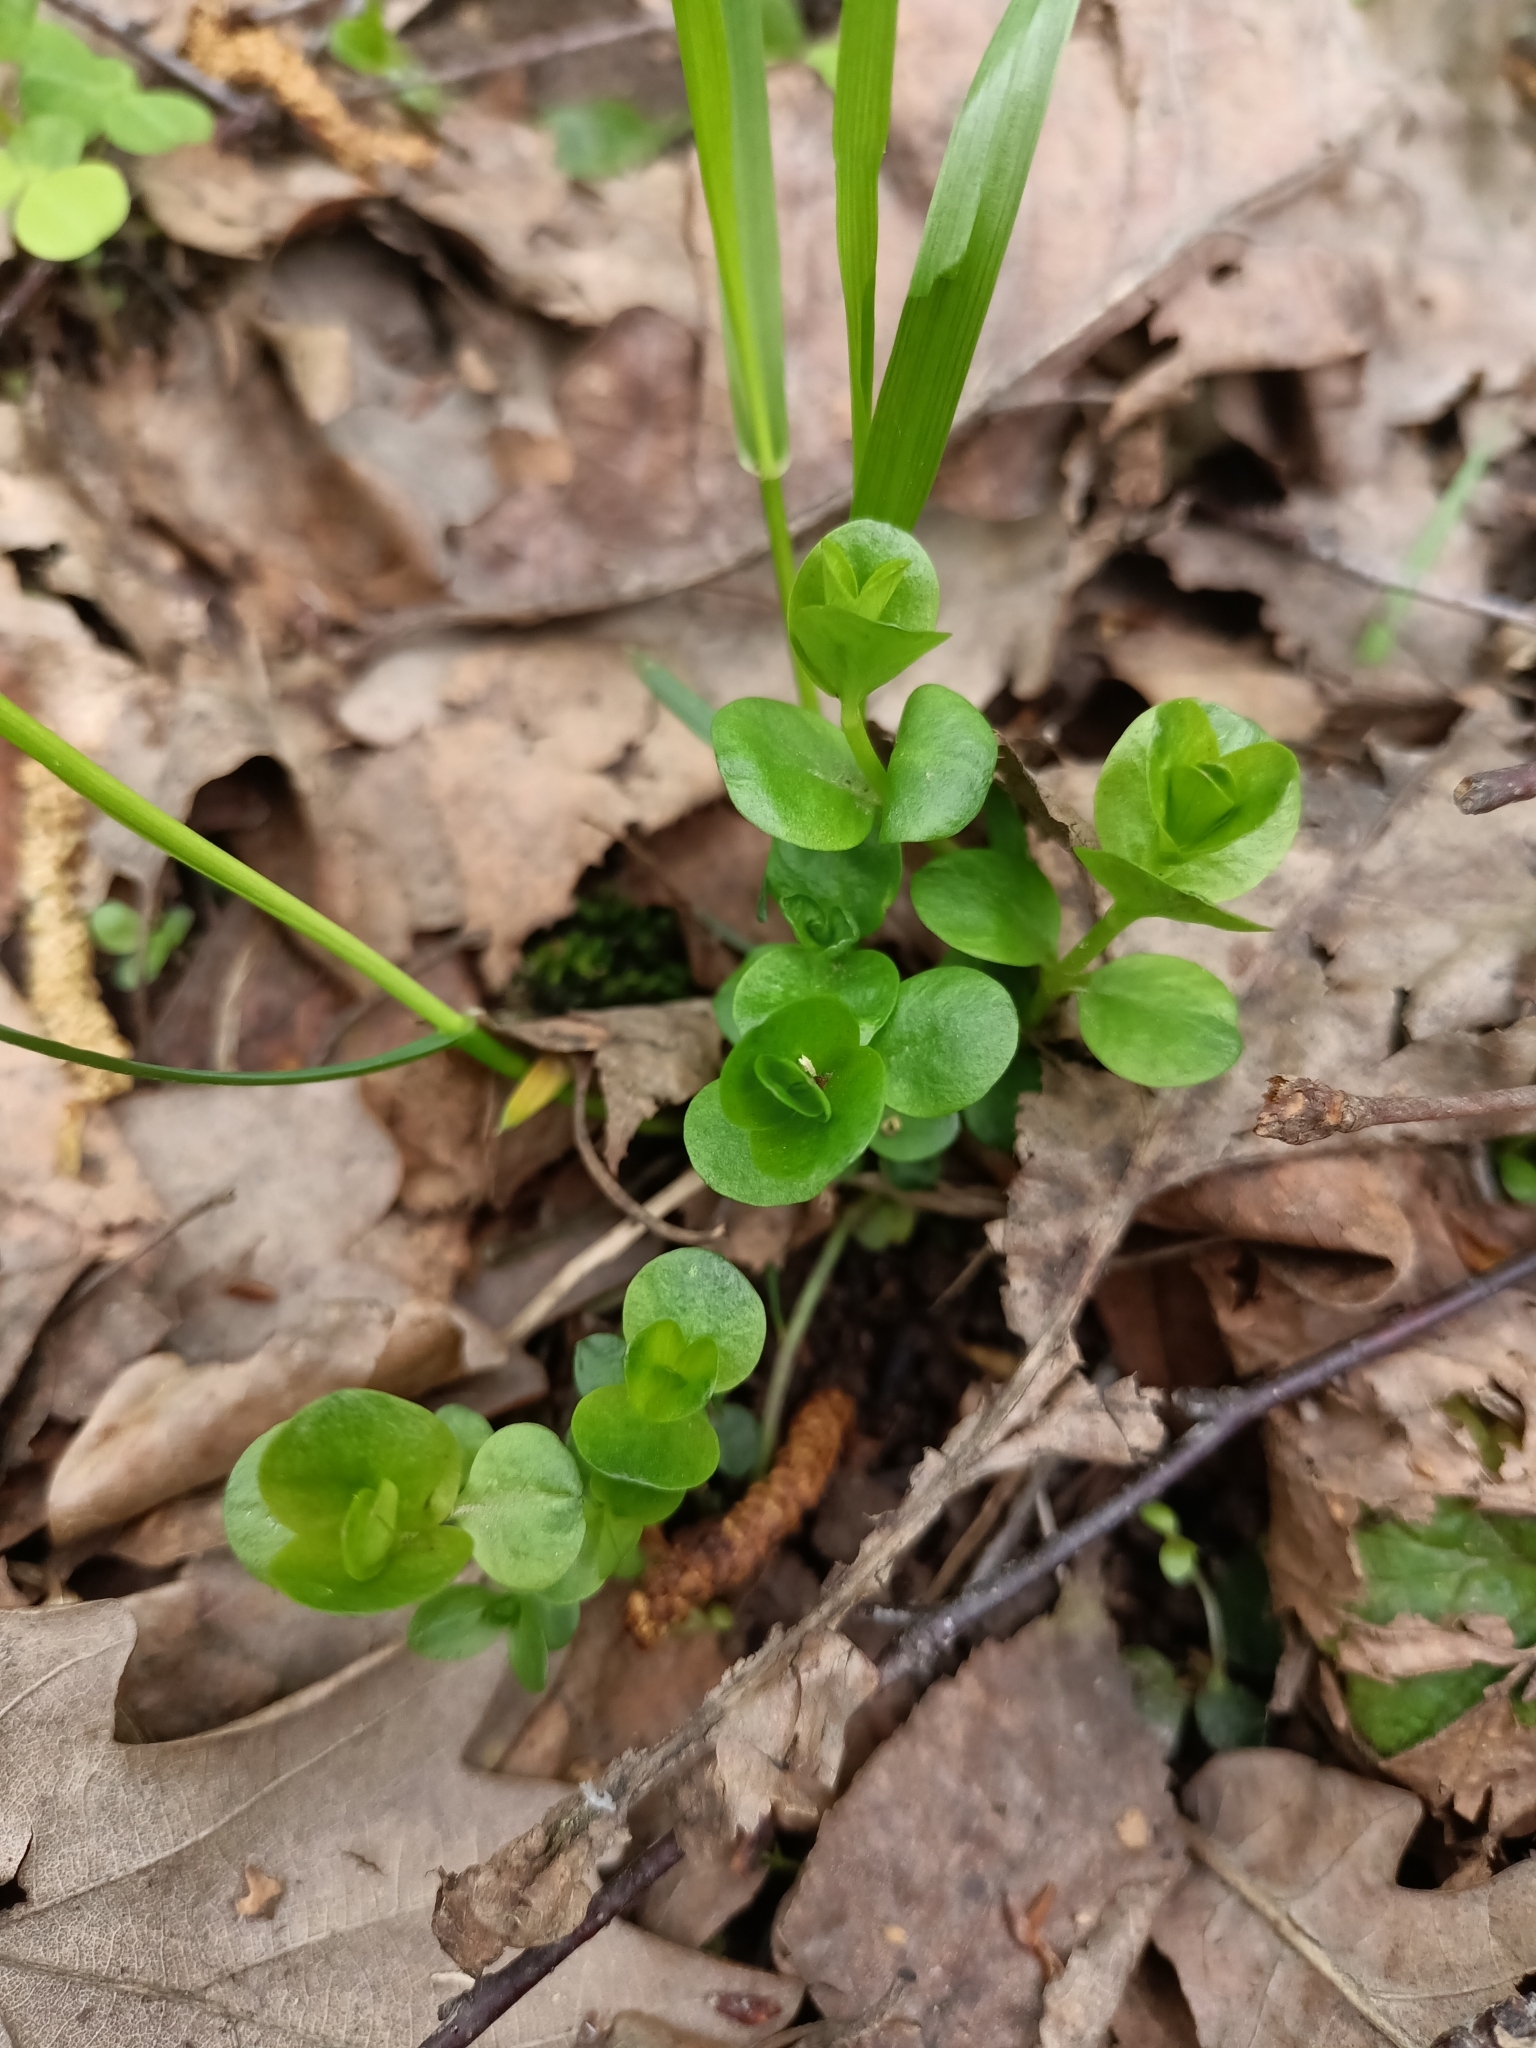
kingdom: Plantae
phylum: Tracheophyta
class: Magnoliopsida
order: Ericales
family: Primulaceae
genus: Lysimachia
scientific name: Lysimachia nummularia
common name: Moneywort
